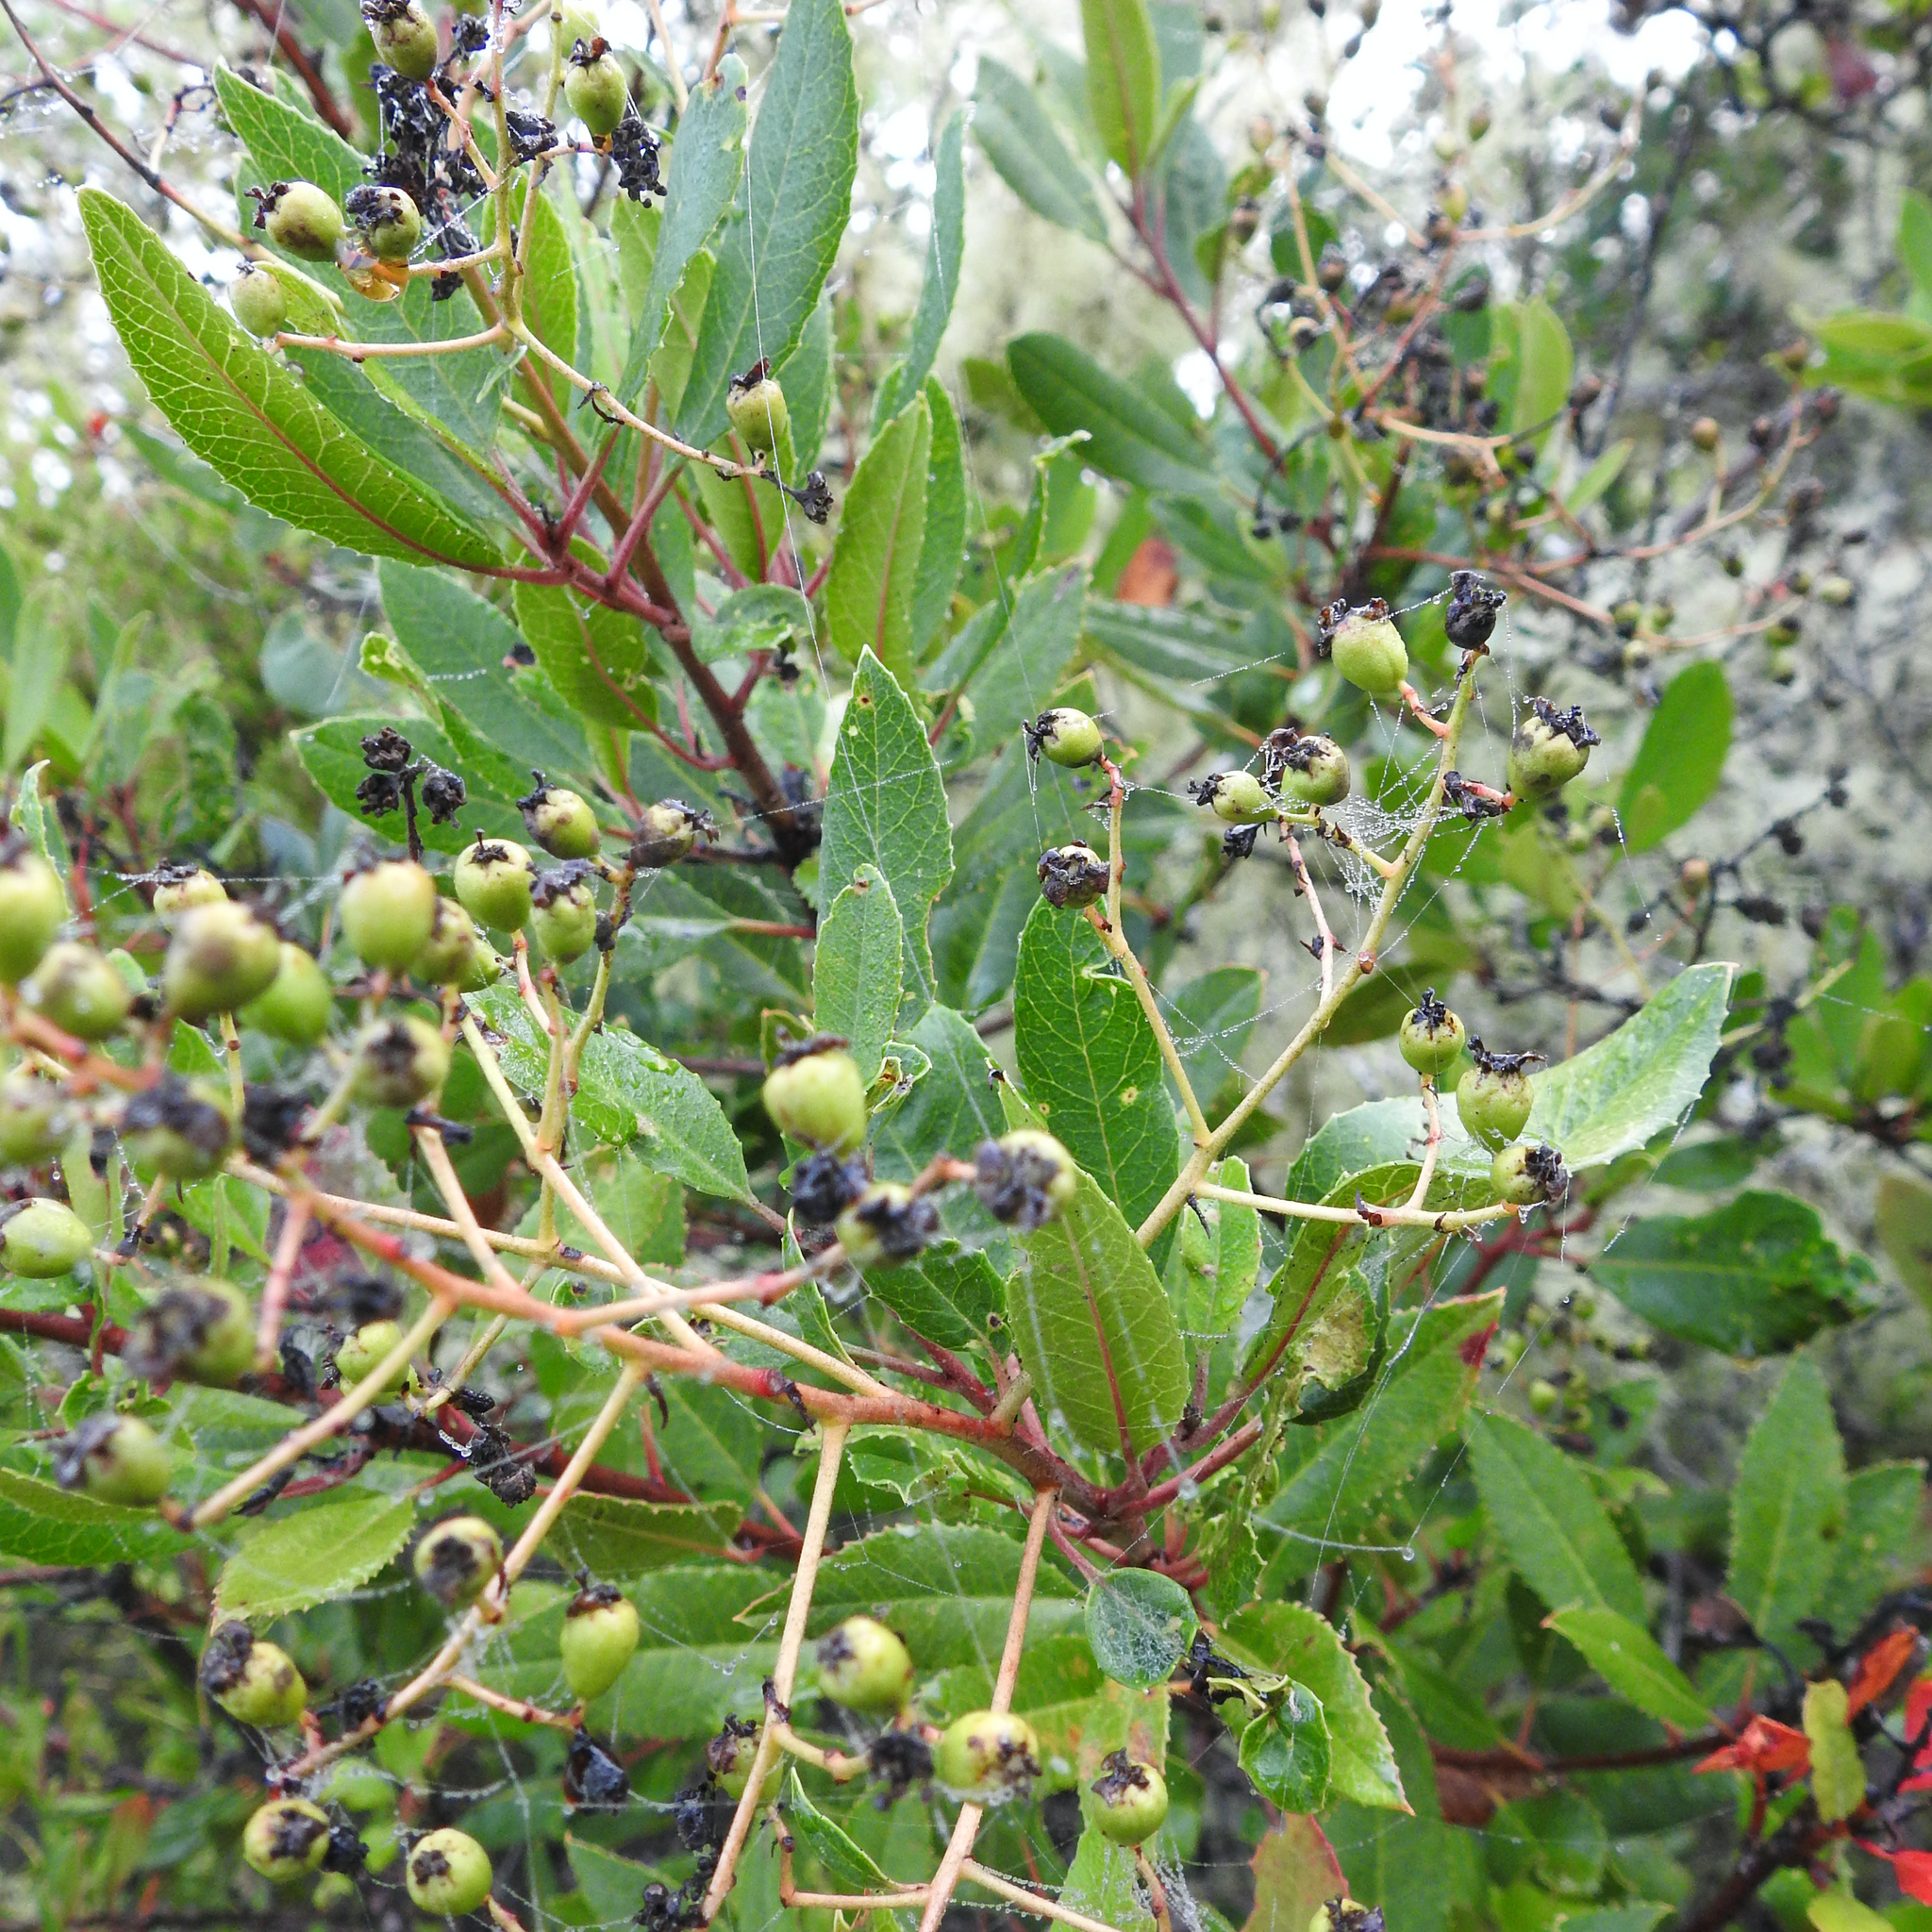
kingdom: Plantae
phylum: Tracheophyta
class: Magnoliopsida
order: Rosales
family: Rosaceae
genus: Heteromeles
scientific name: Heteromeles arbutifolia
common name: California-holly
